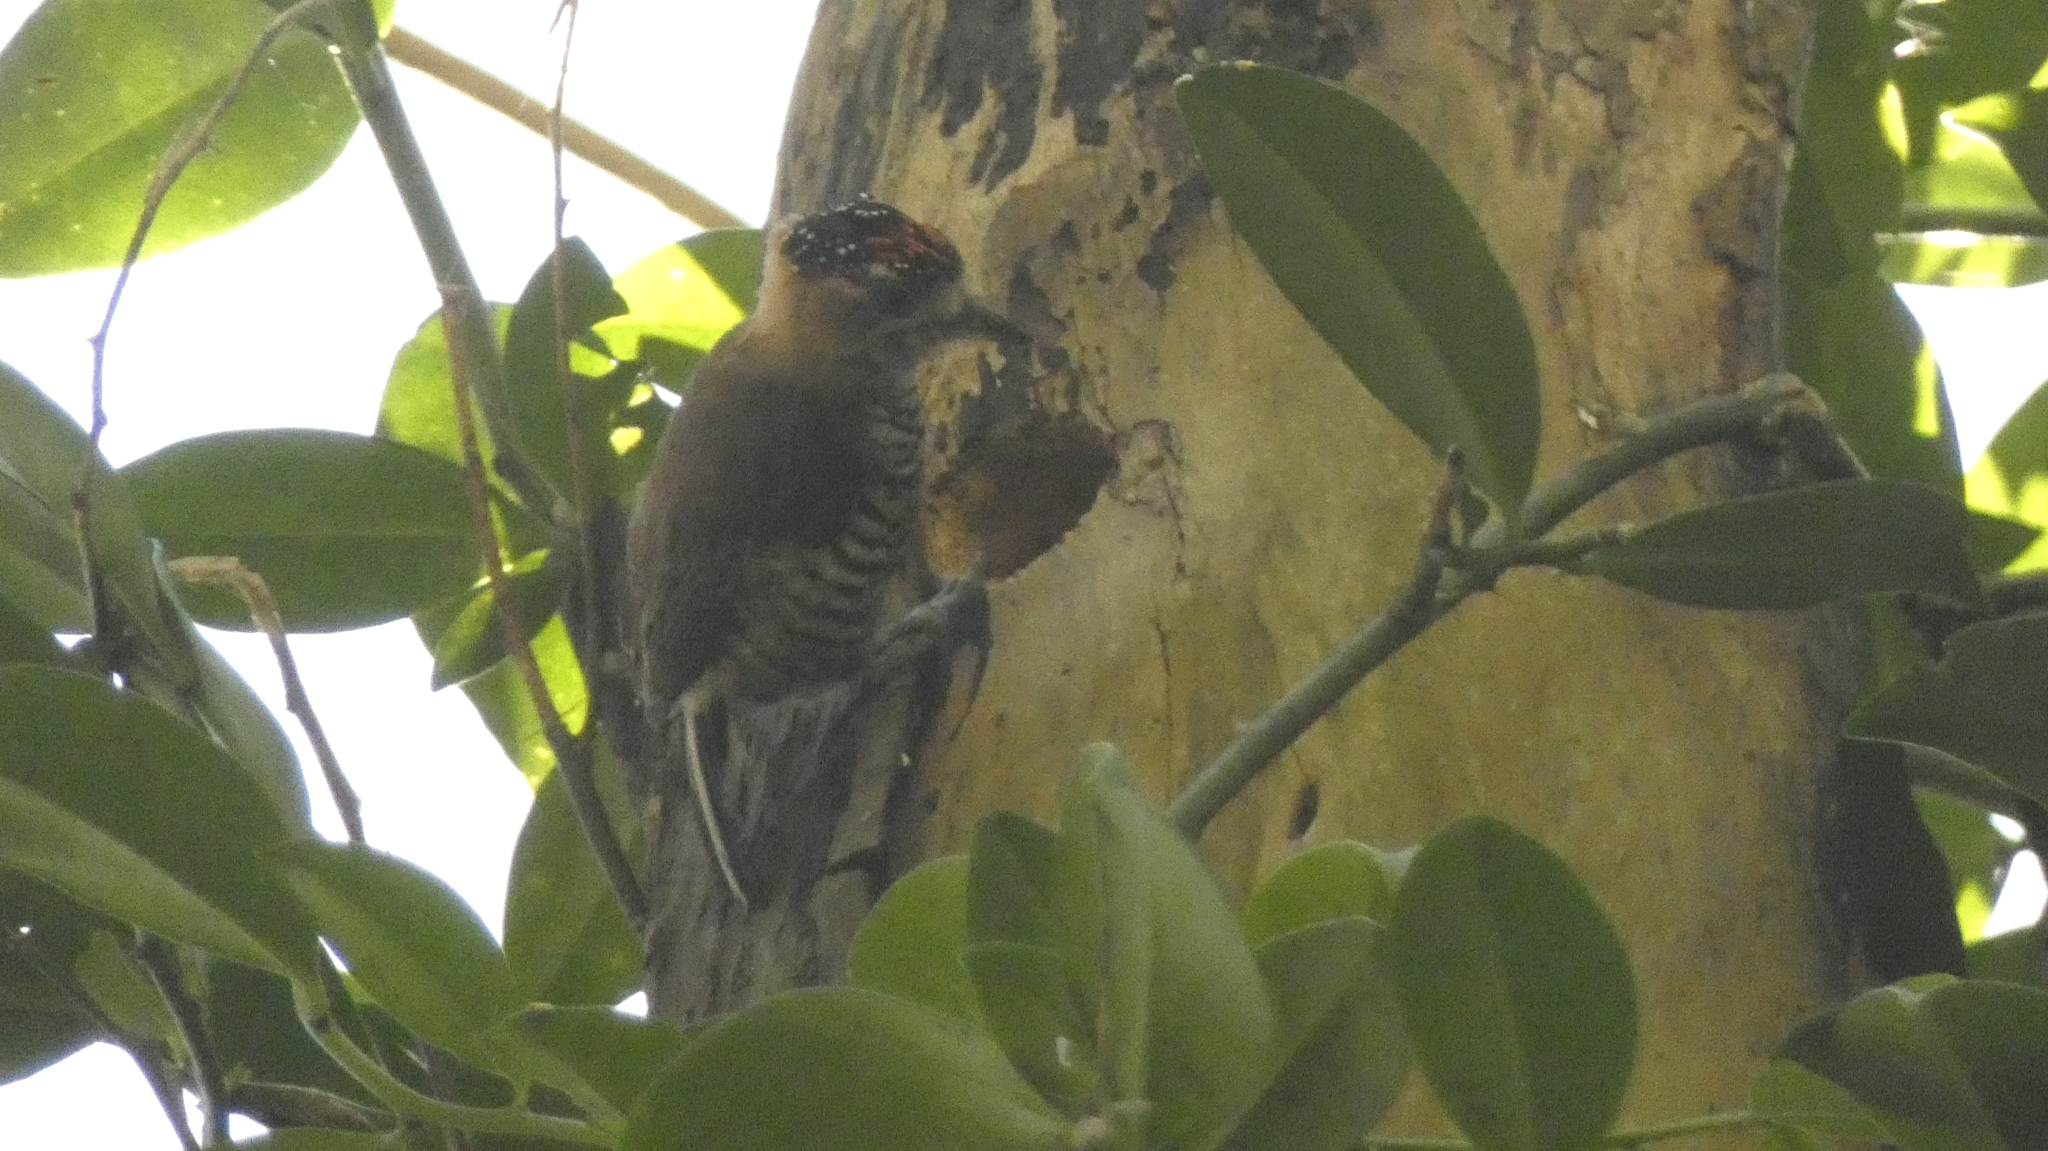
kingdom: Animalia
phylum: Chordata
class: Aves
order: Piciformes
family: Picidae
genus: Picumnus
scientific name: Picumnus temminckii
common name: Ochre-collared piculet
